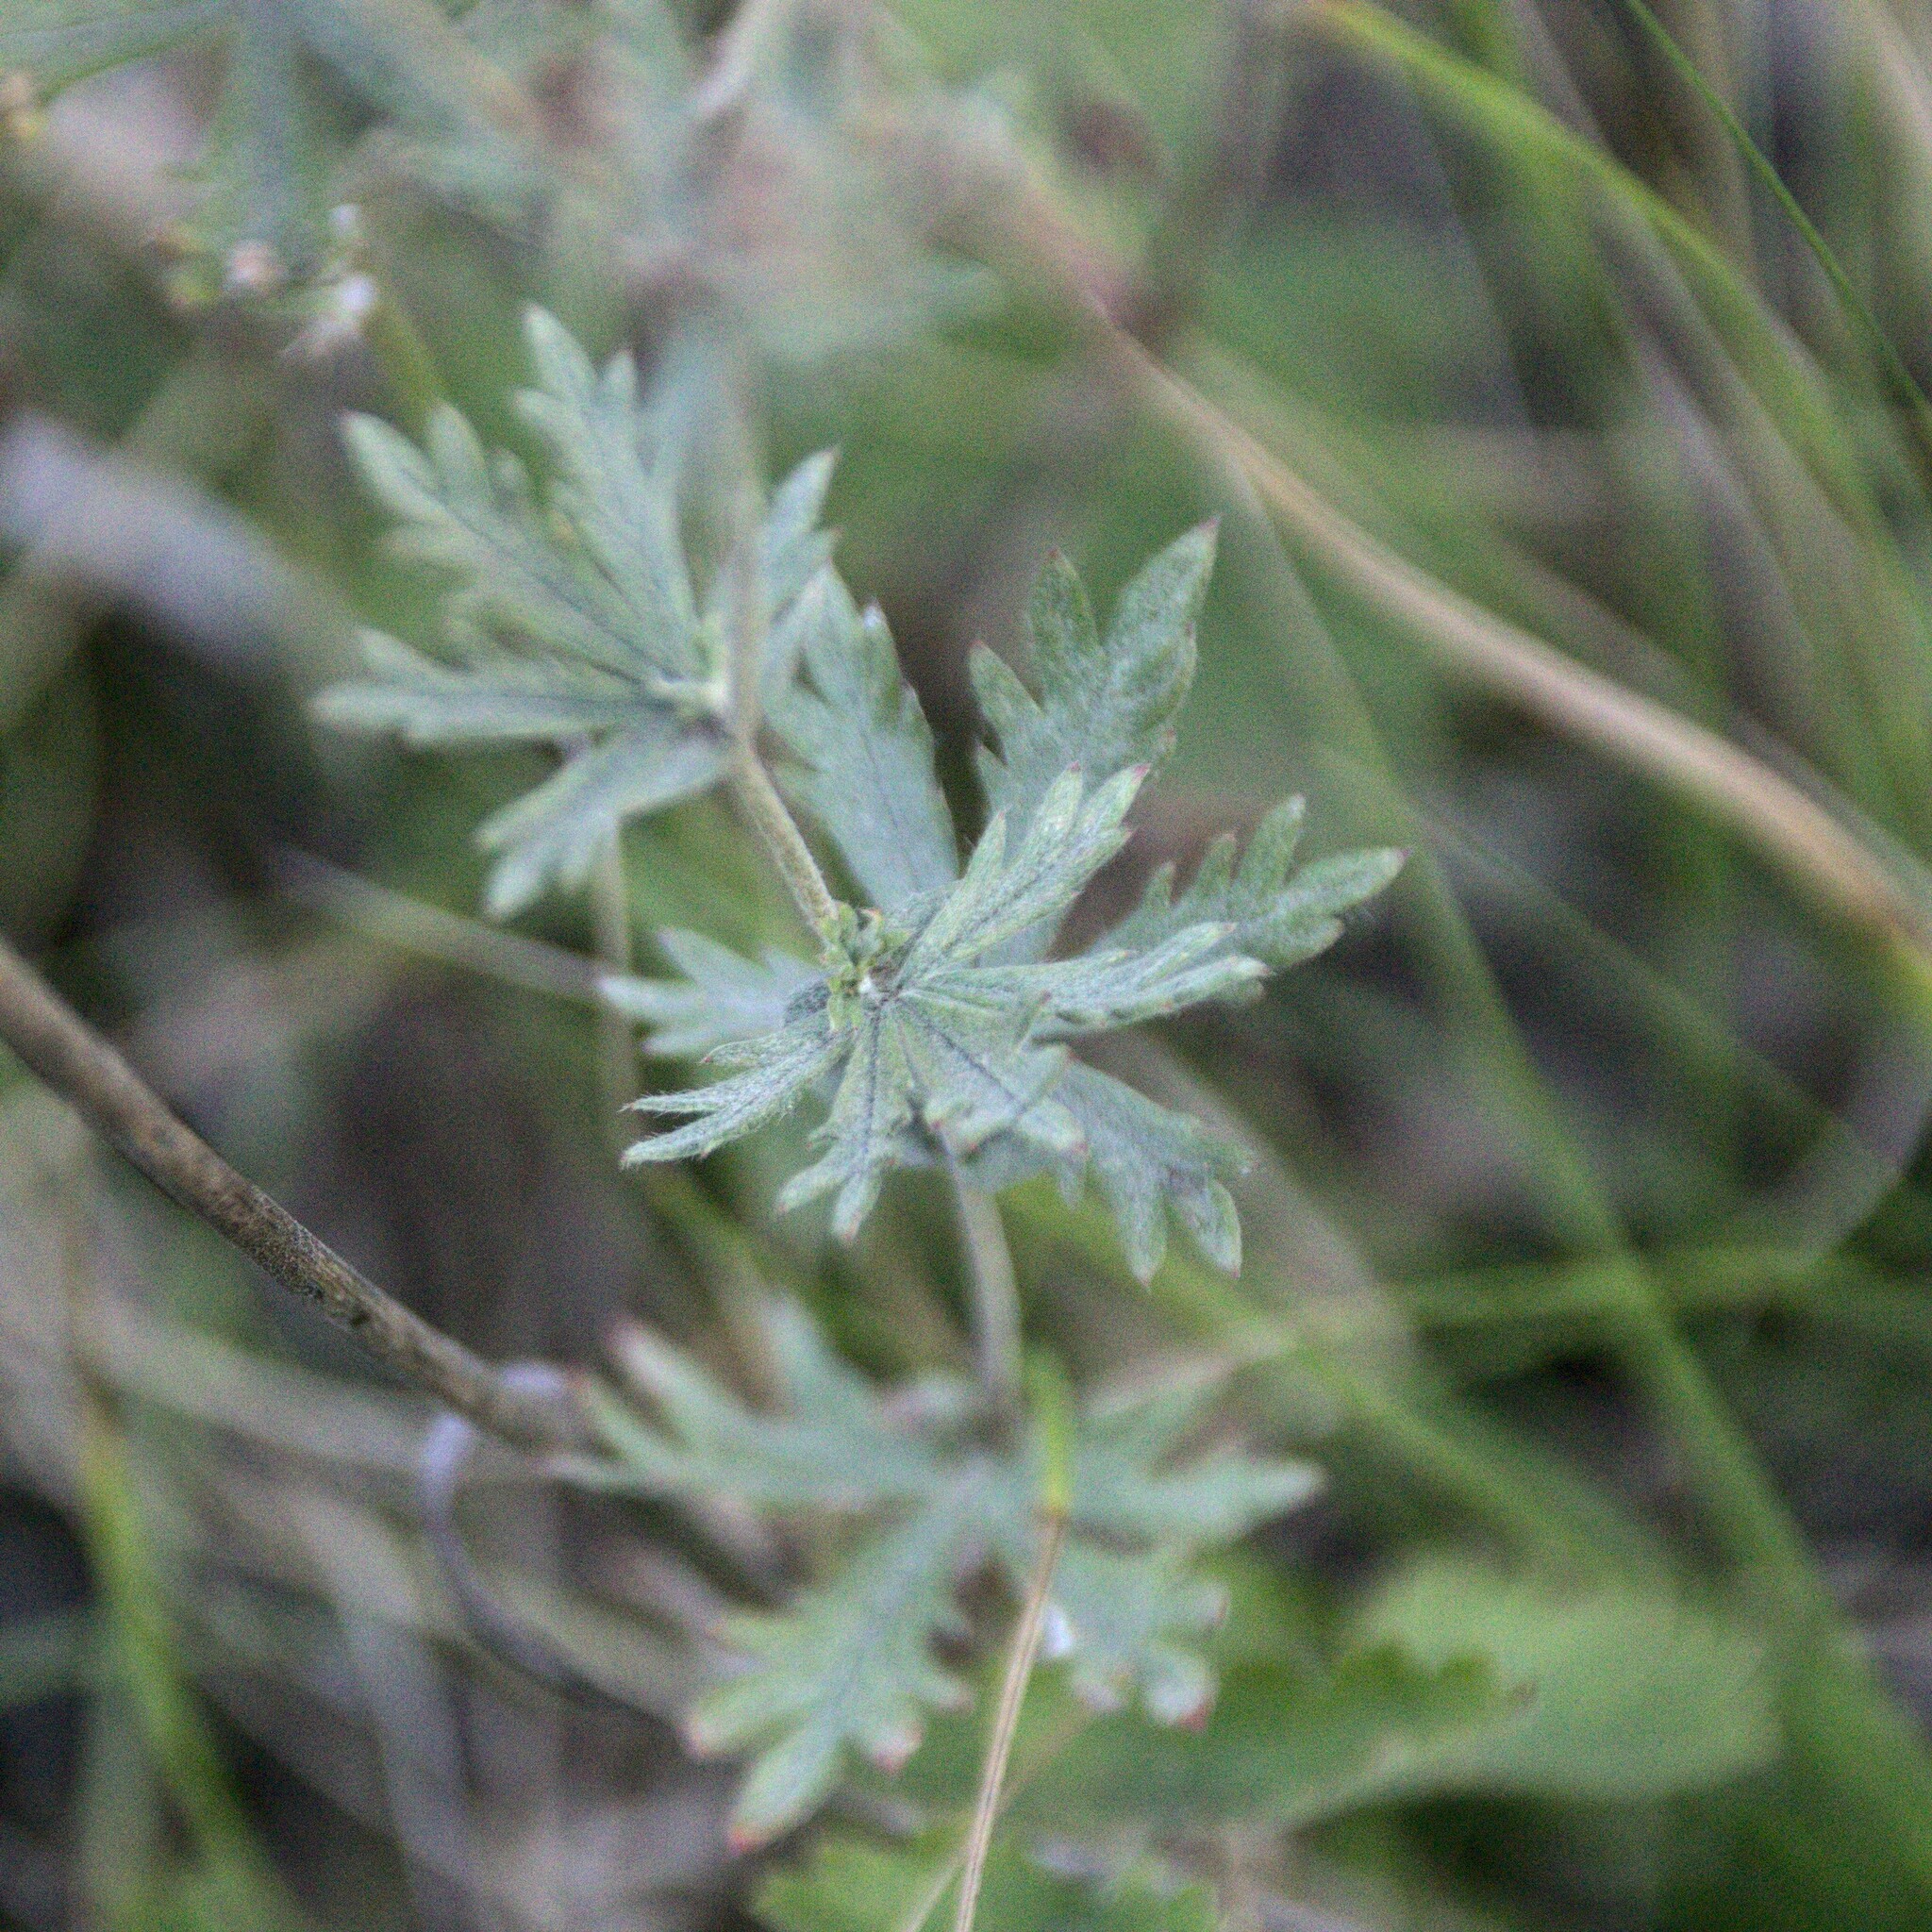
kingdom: Plantae
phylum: Tracheophyta
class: Magnoliopsida
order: Rosales
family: Rosaceae
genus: Potentilla
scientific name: Potentilla argentea
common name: Hoary cinquefoil
